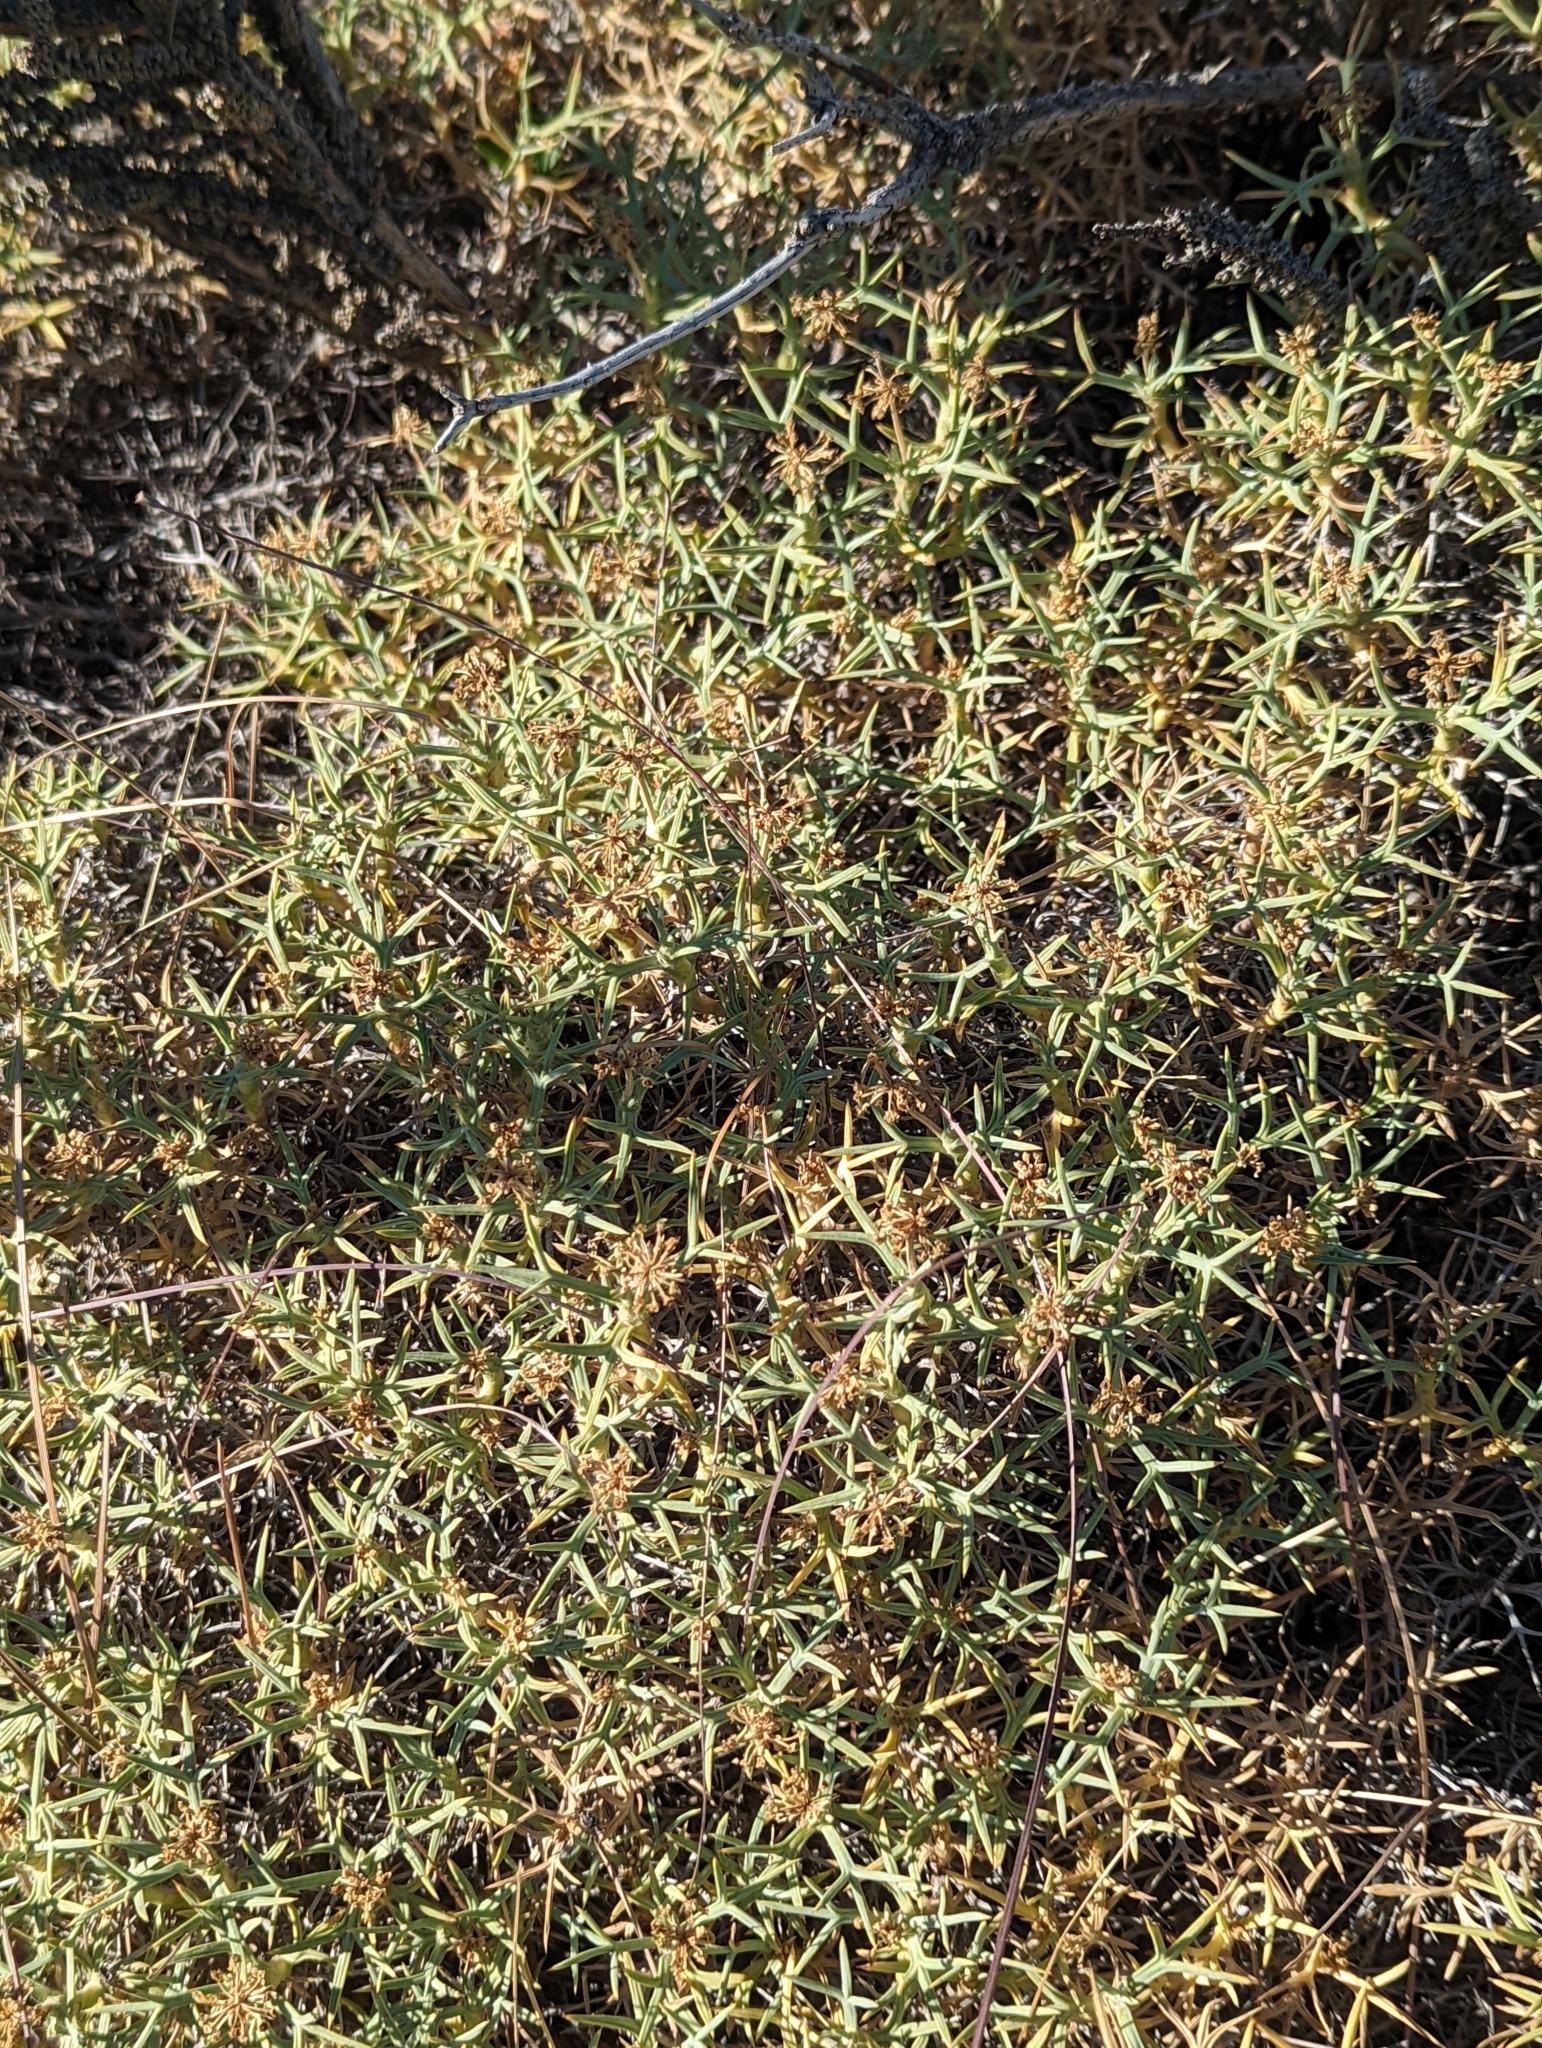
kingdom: Plantae
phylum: Tracheophyta
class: Magnoliopsida
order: Apiales
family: Apiaceae
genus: Azorella
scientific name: Azorella prolifera
